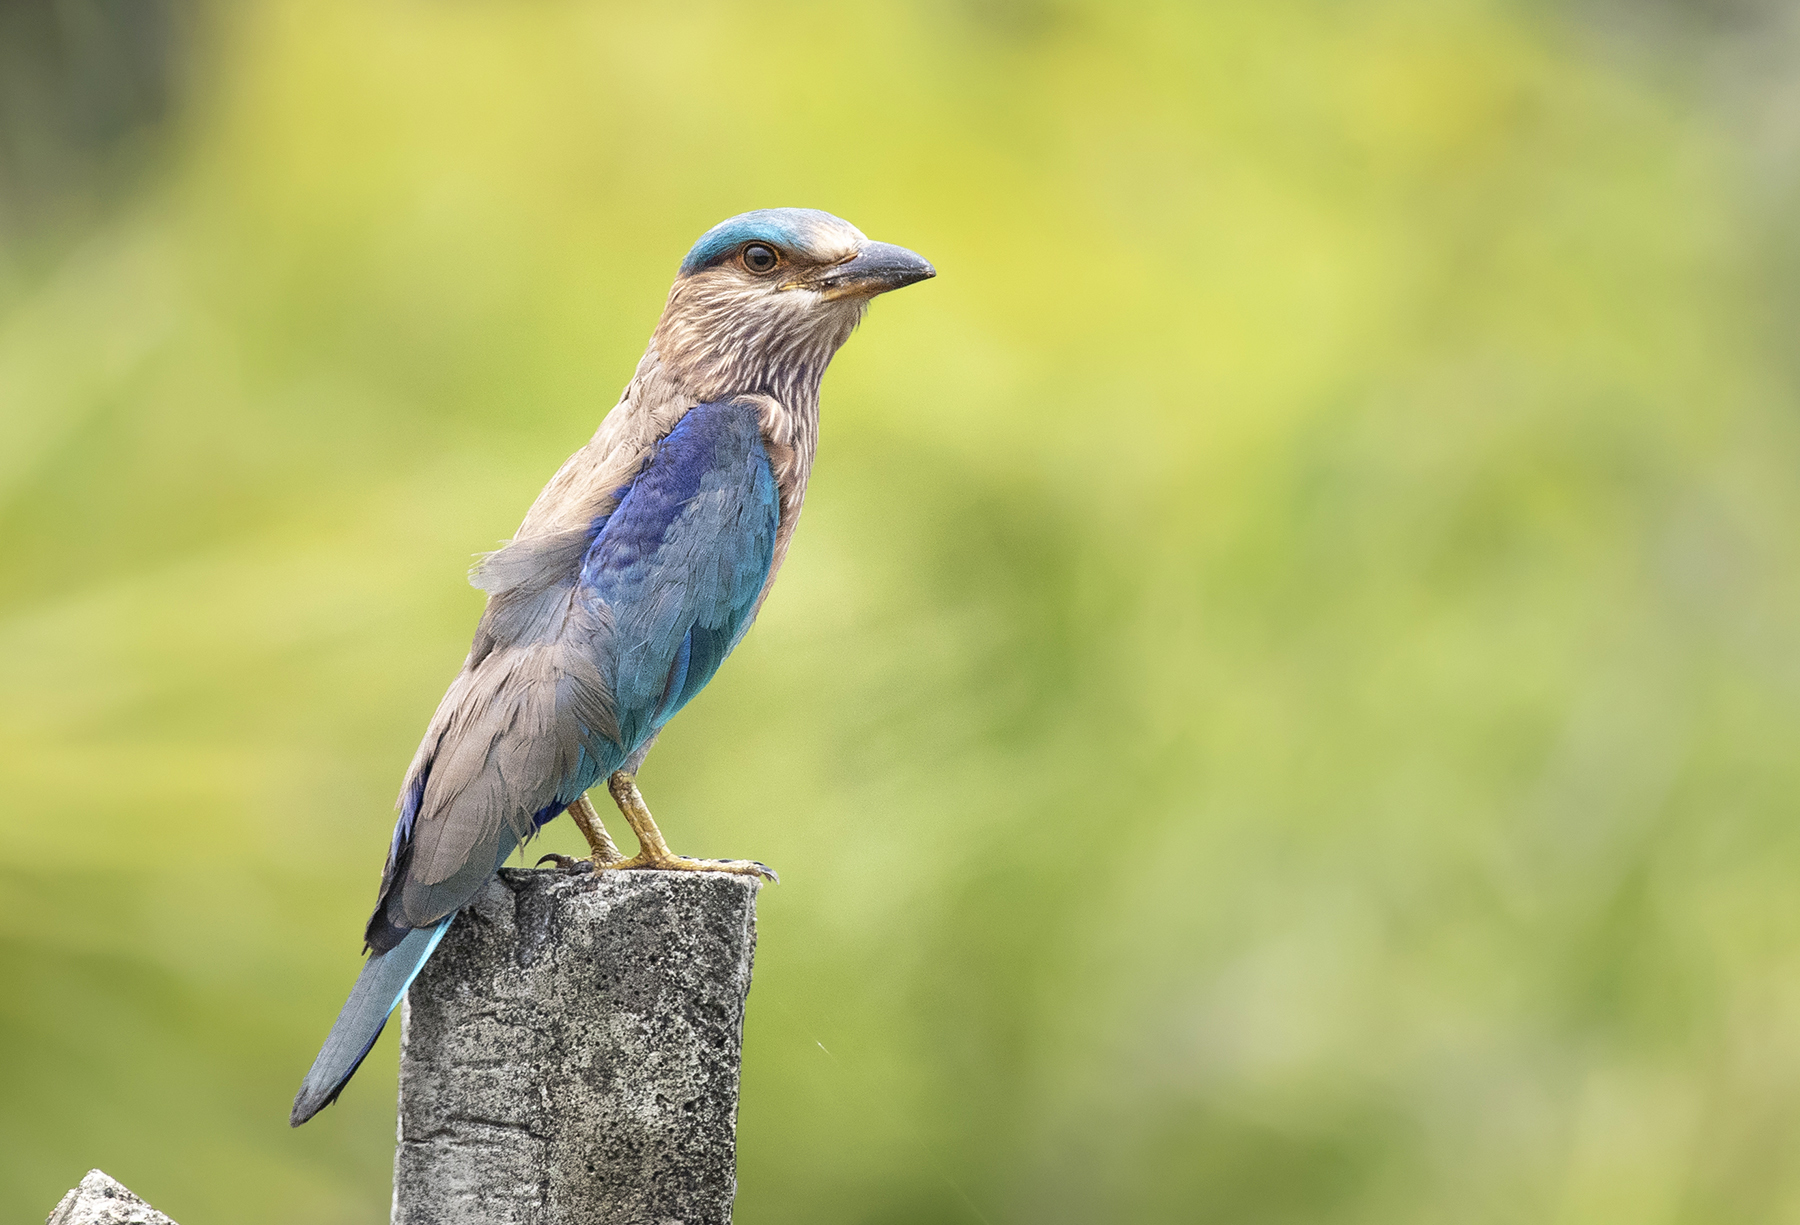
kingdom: Animalia
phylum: Chordata
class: Aves
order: Coraciiformes
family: Coraciidae
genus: Coracias
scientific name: Coracias benghalensis
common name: Indian roller
